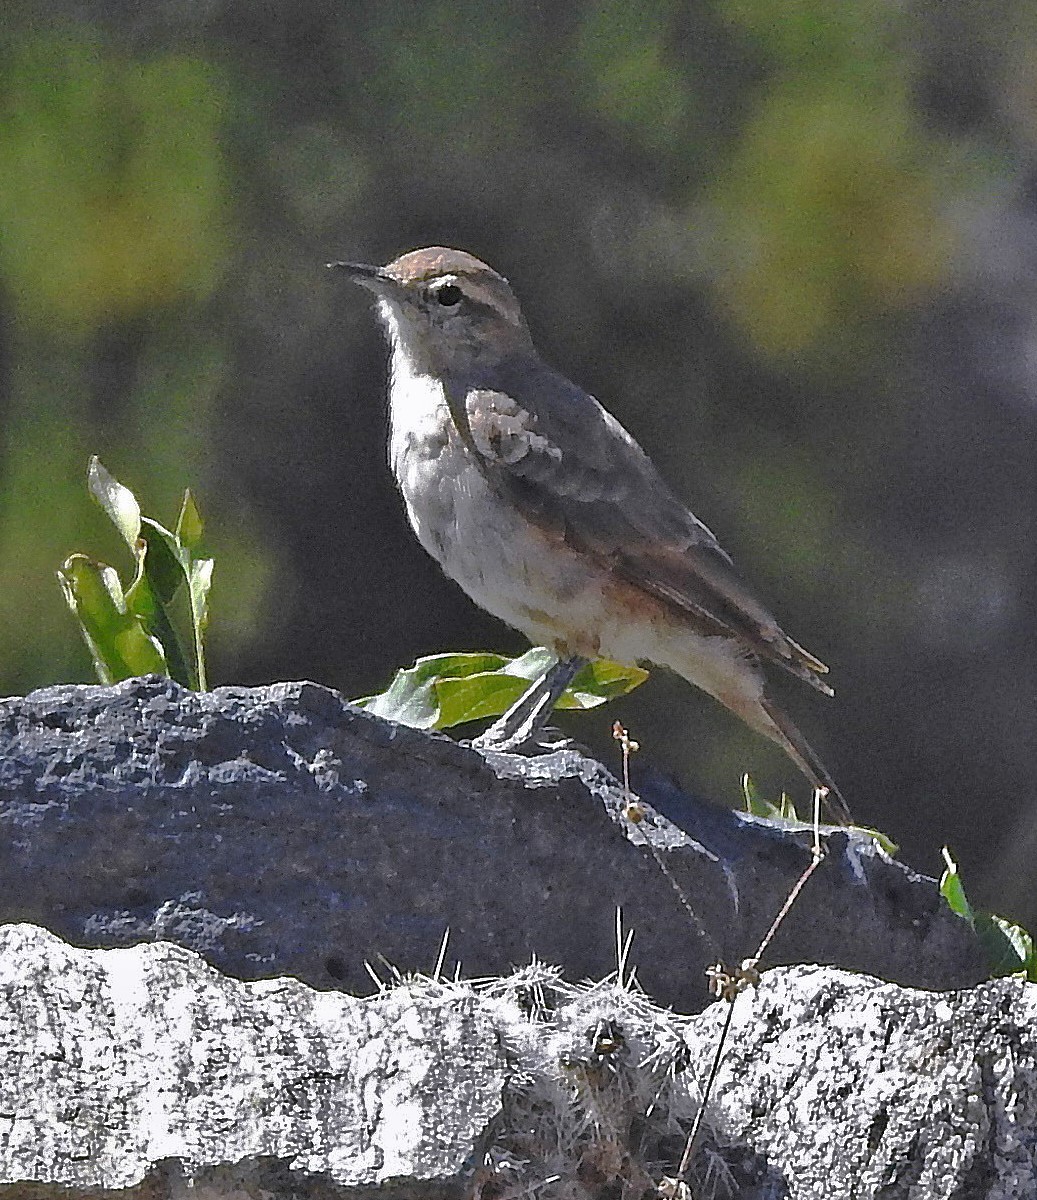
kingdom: Animalia
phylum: Chordata
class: Aves
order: Passeriformes
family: Furnariidae
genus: Geositta
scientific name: Geositta rufipennis
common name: Rufous-banded miner
